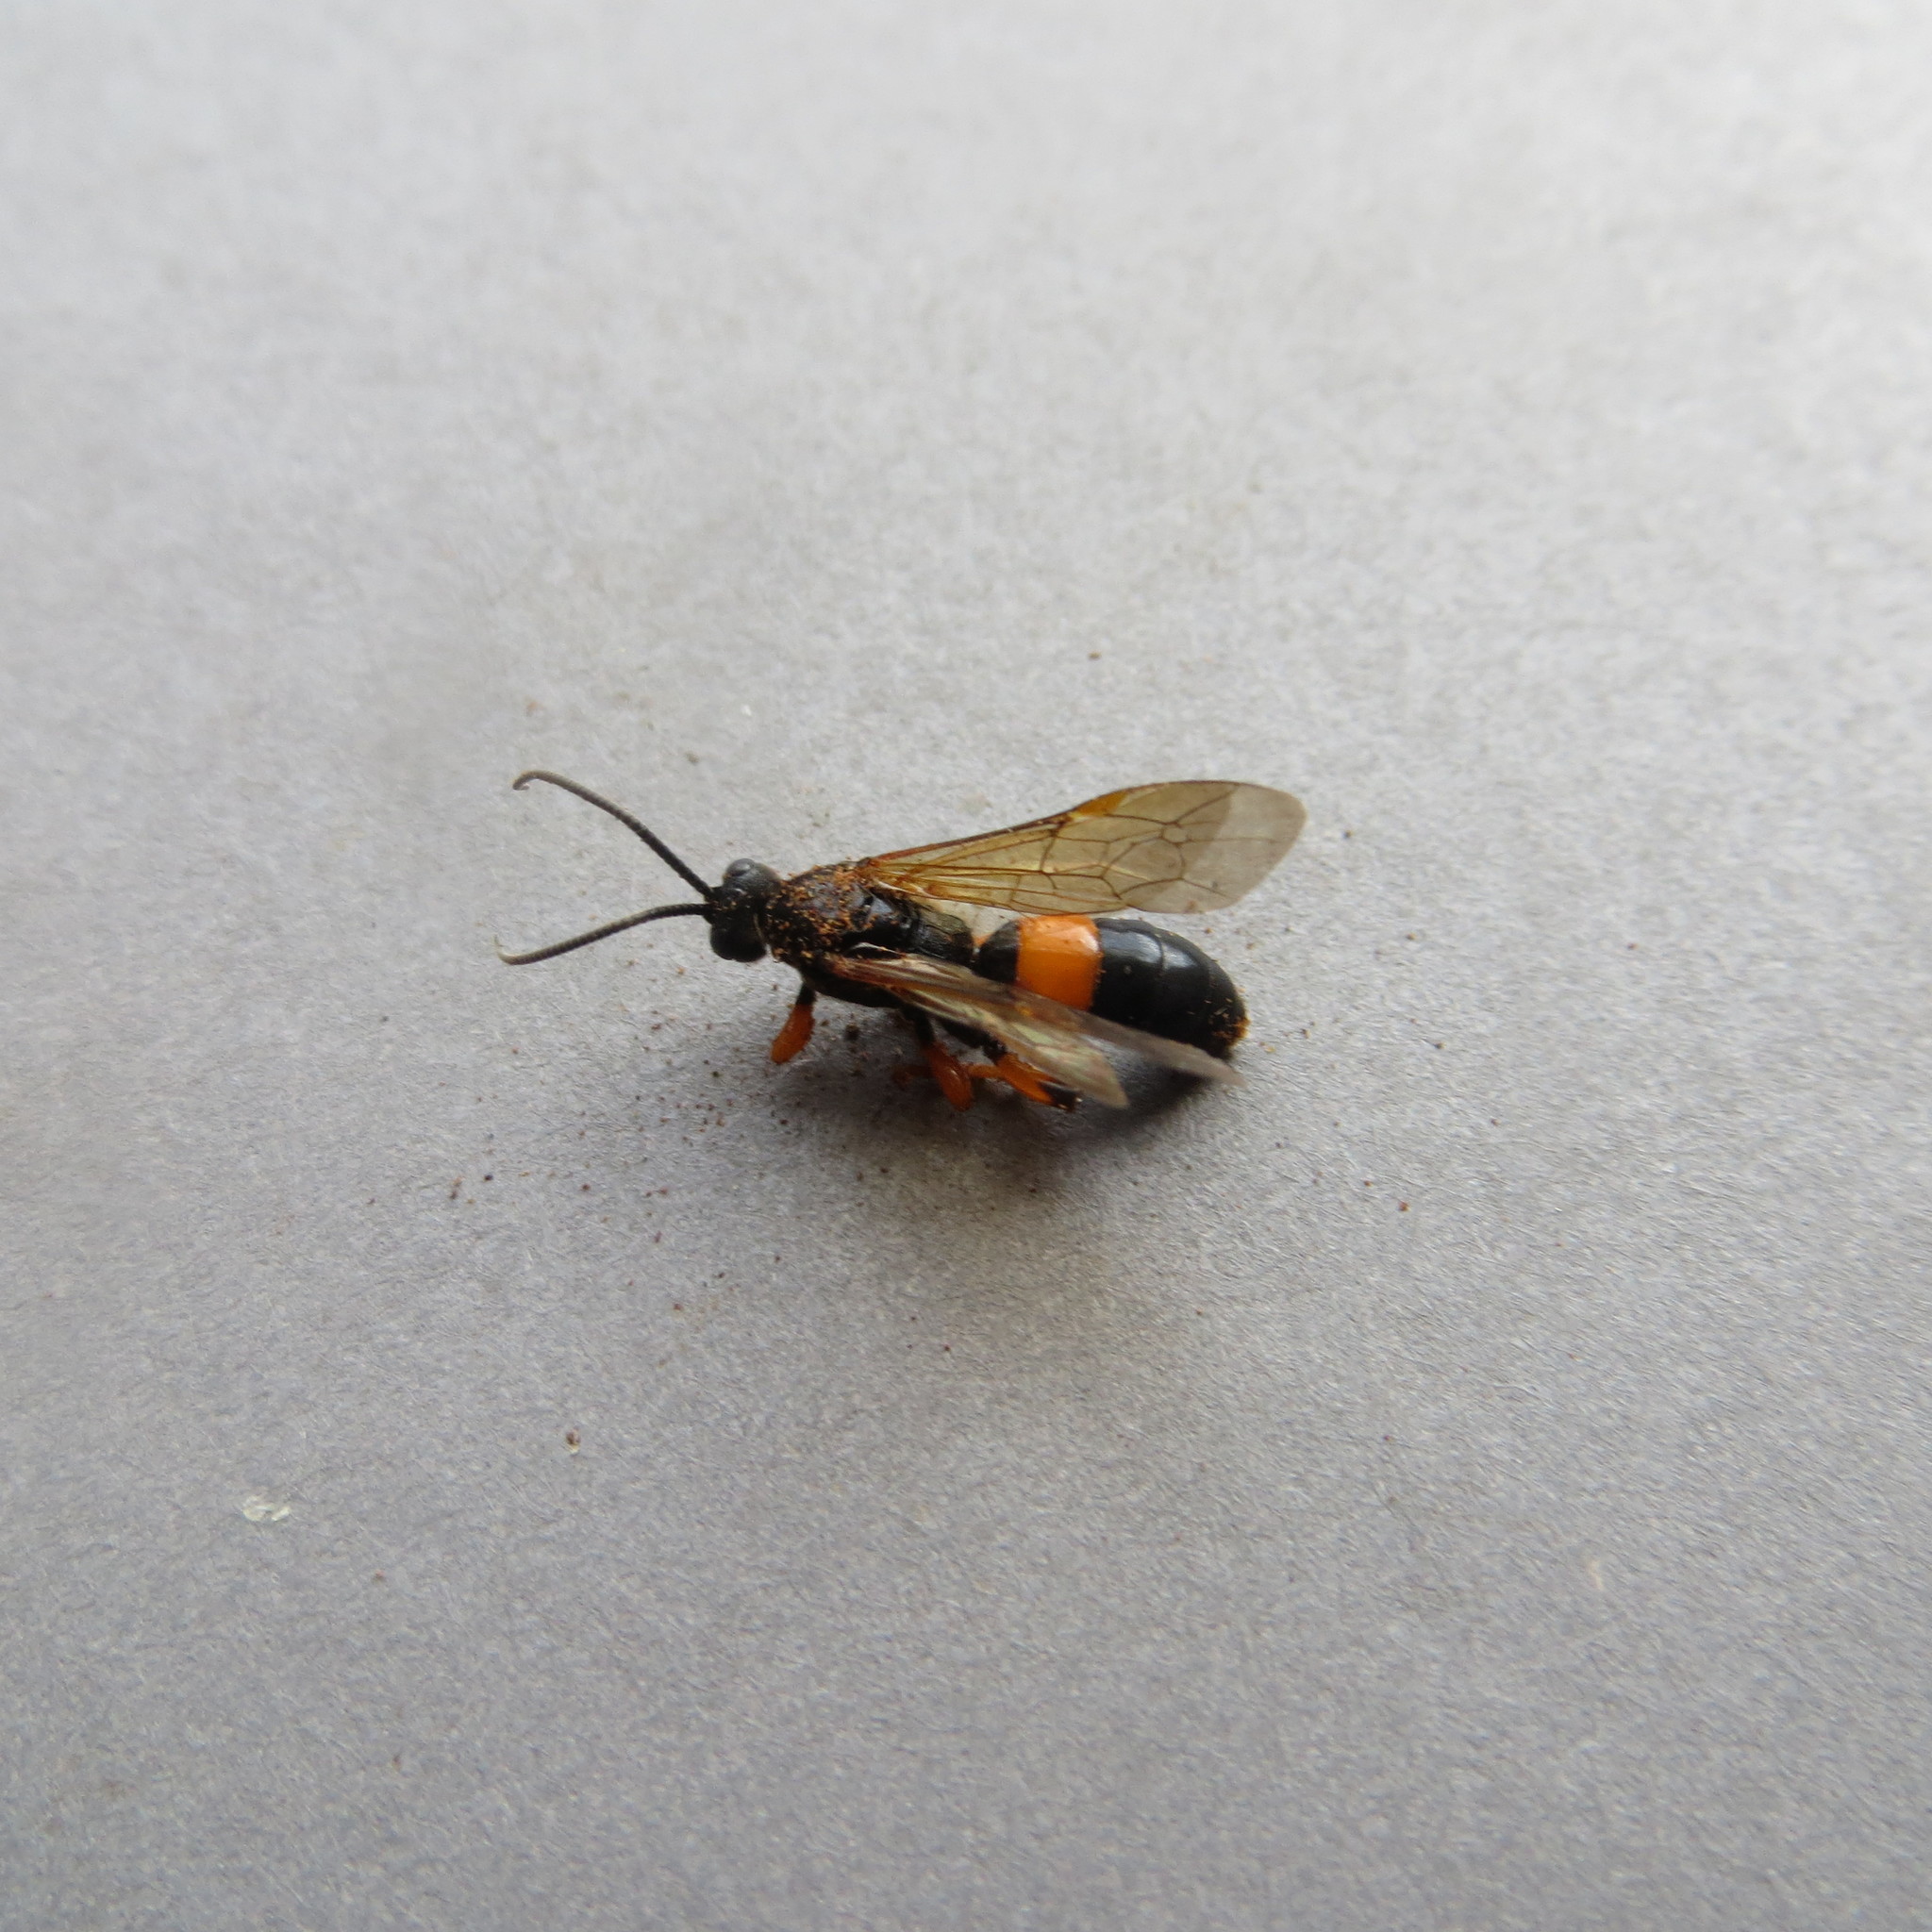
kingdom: Animalia
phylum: Arthropoda
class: Insecta
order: Hymenoptera
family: Ichneumonidae
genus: Ichneumon
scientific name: Ichneumon lotatorius
